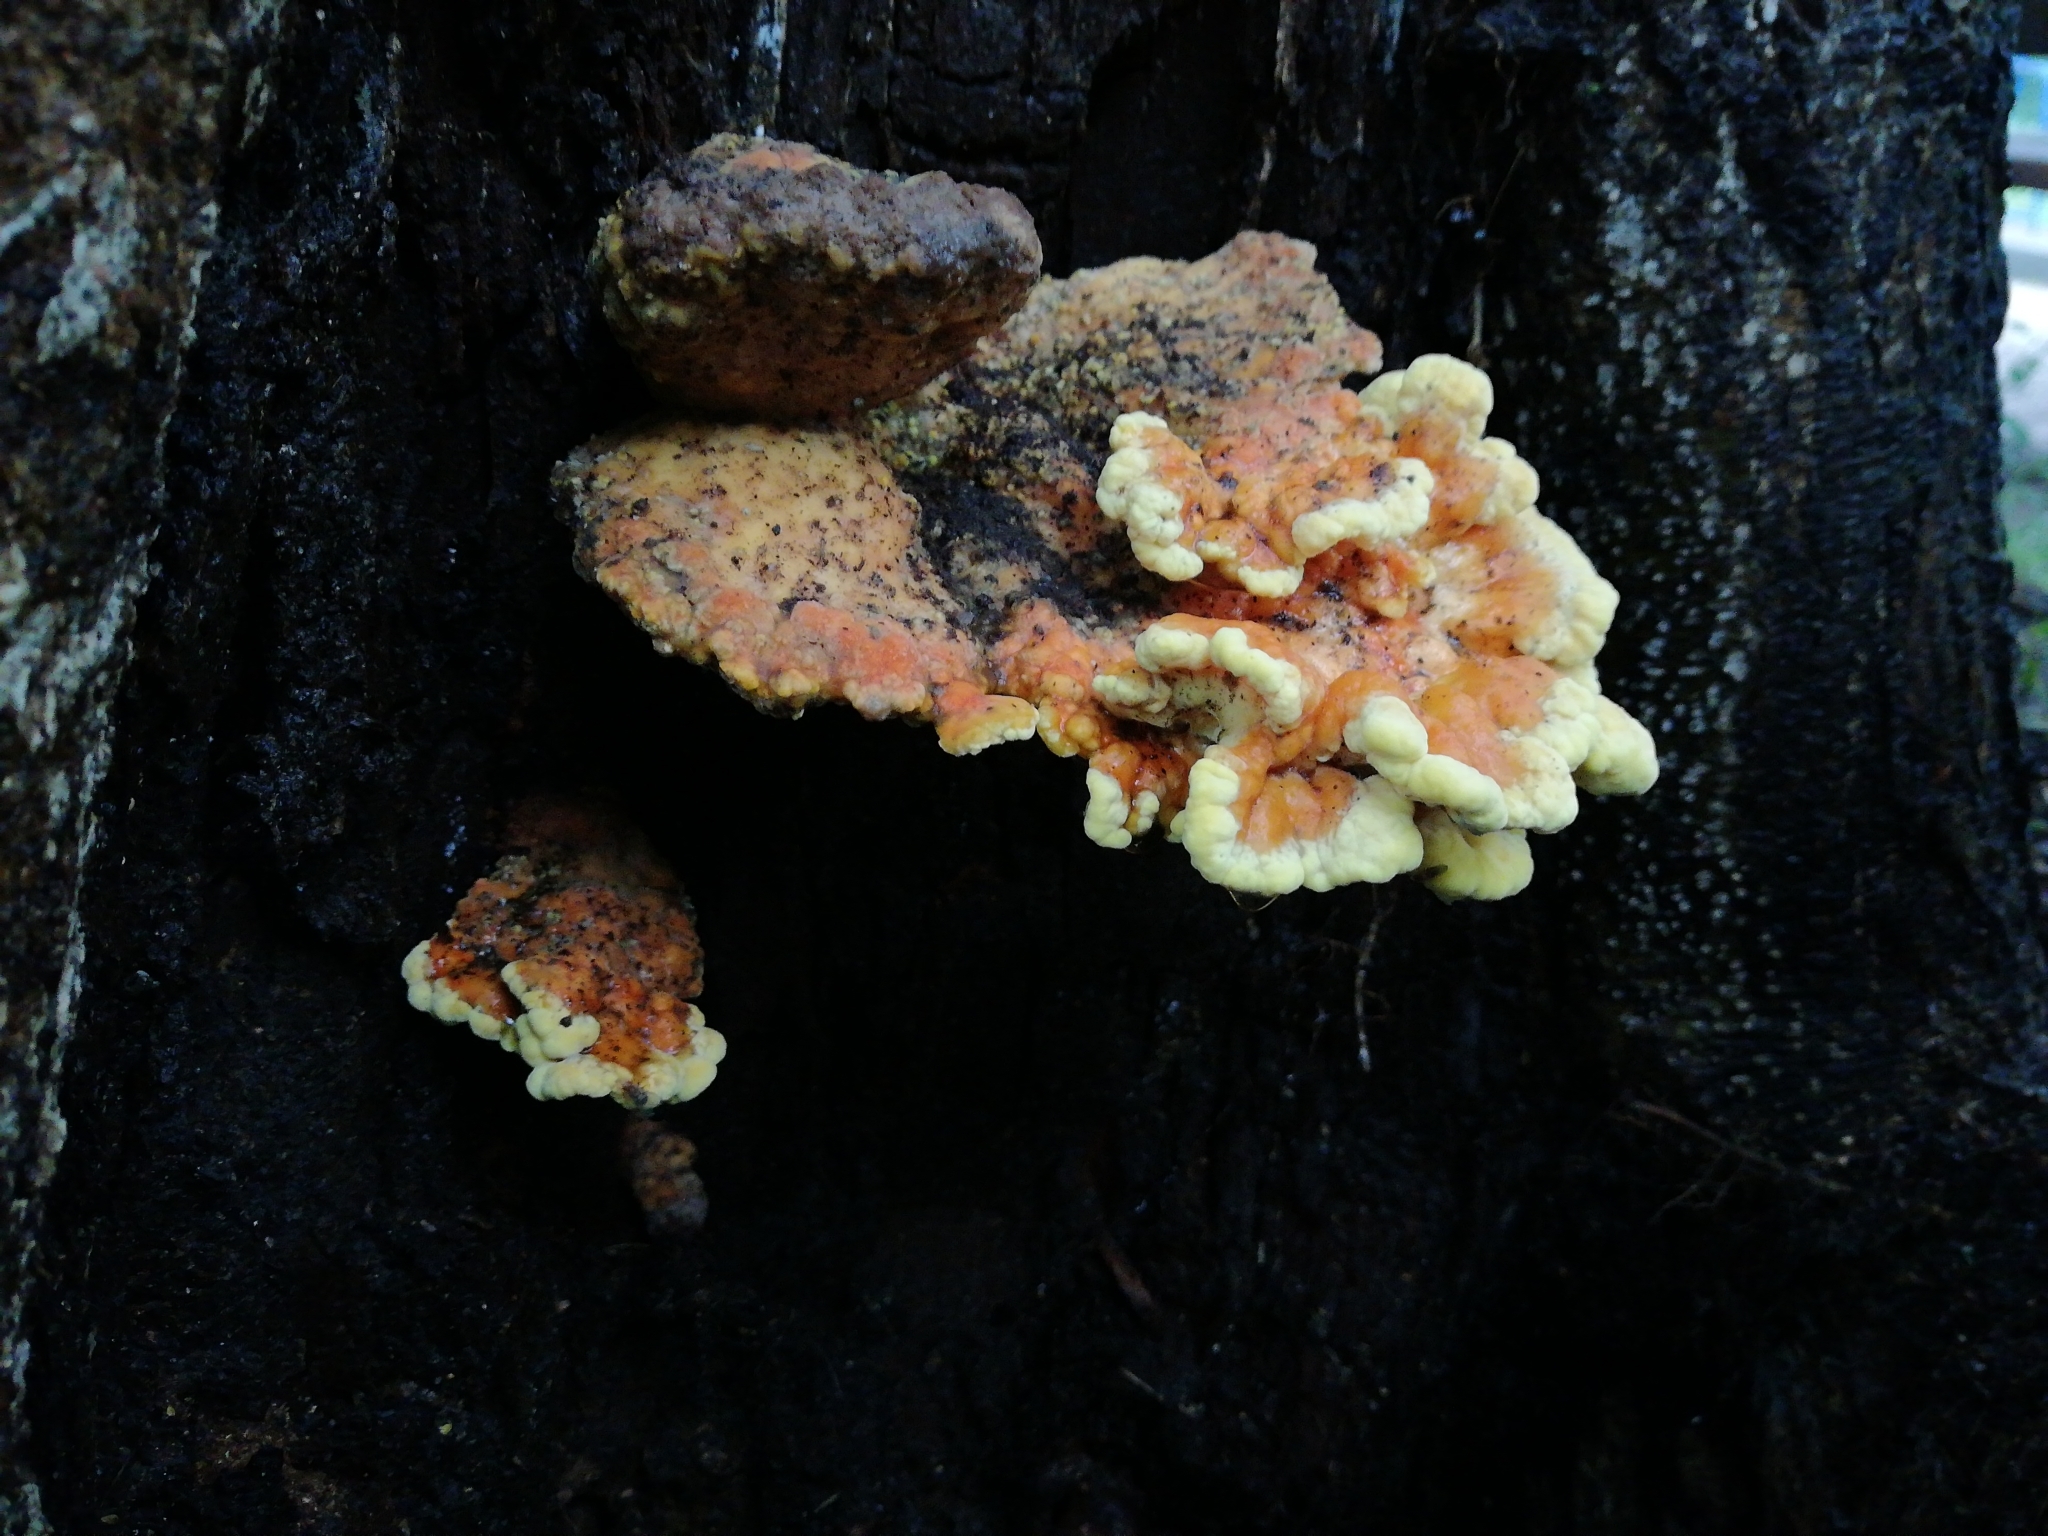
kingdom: Fungi
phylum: Basidiomycota
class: Agaricomycetes
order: Polyporales
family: Laetiporaceae
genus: Laetiporus
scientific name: Laetiporus sulphureus
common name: Chicken of the woods
